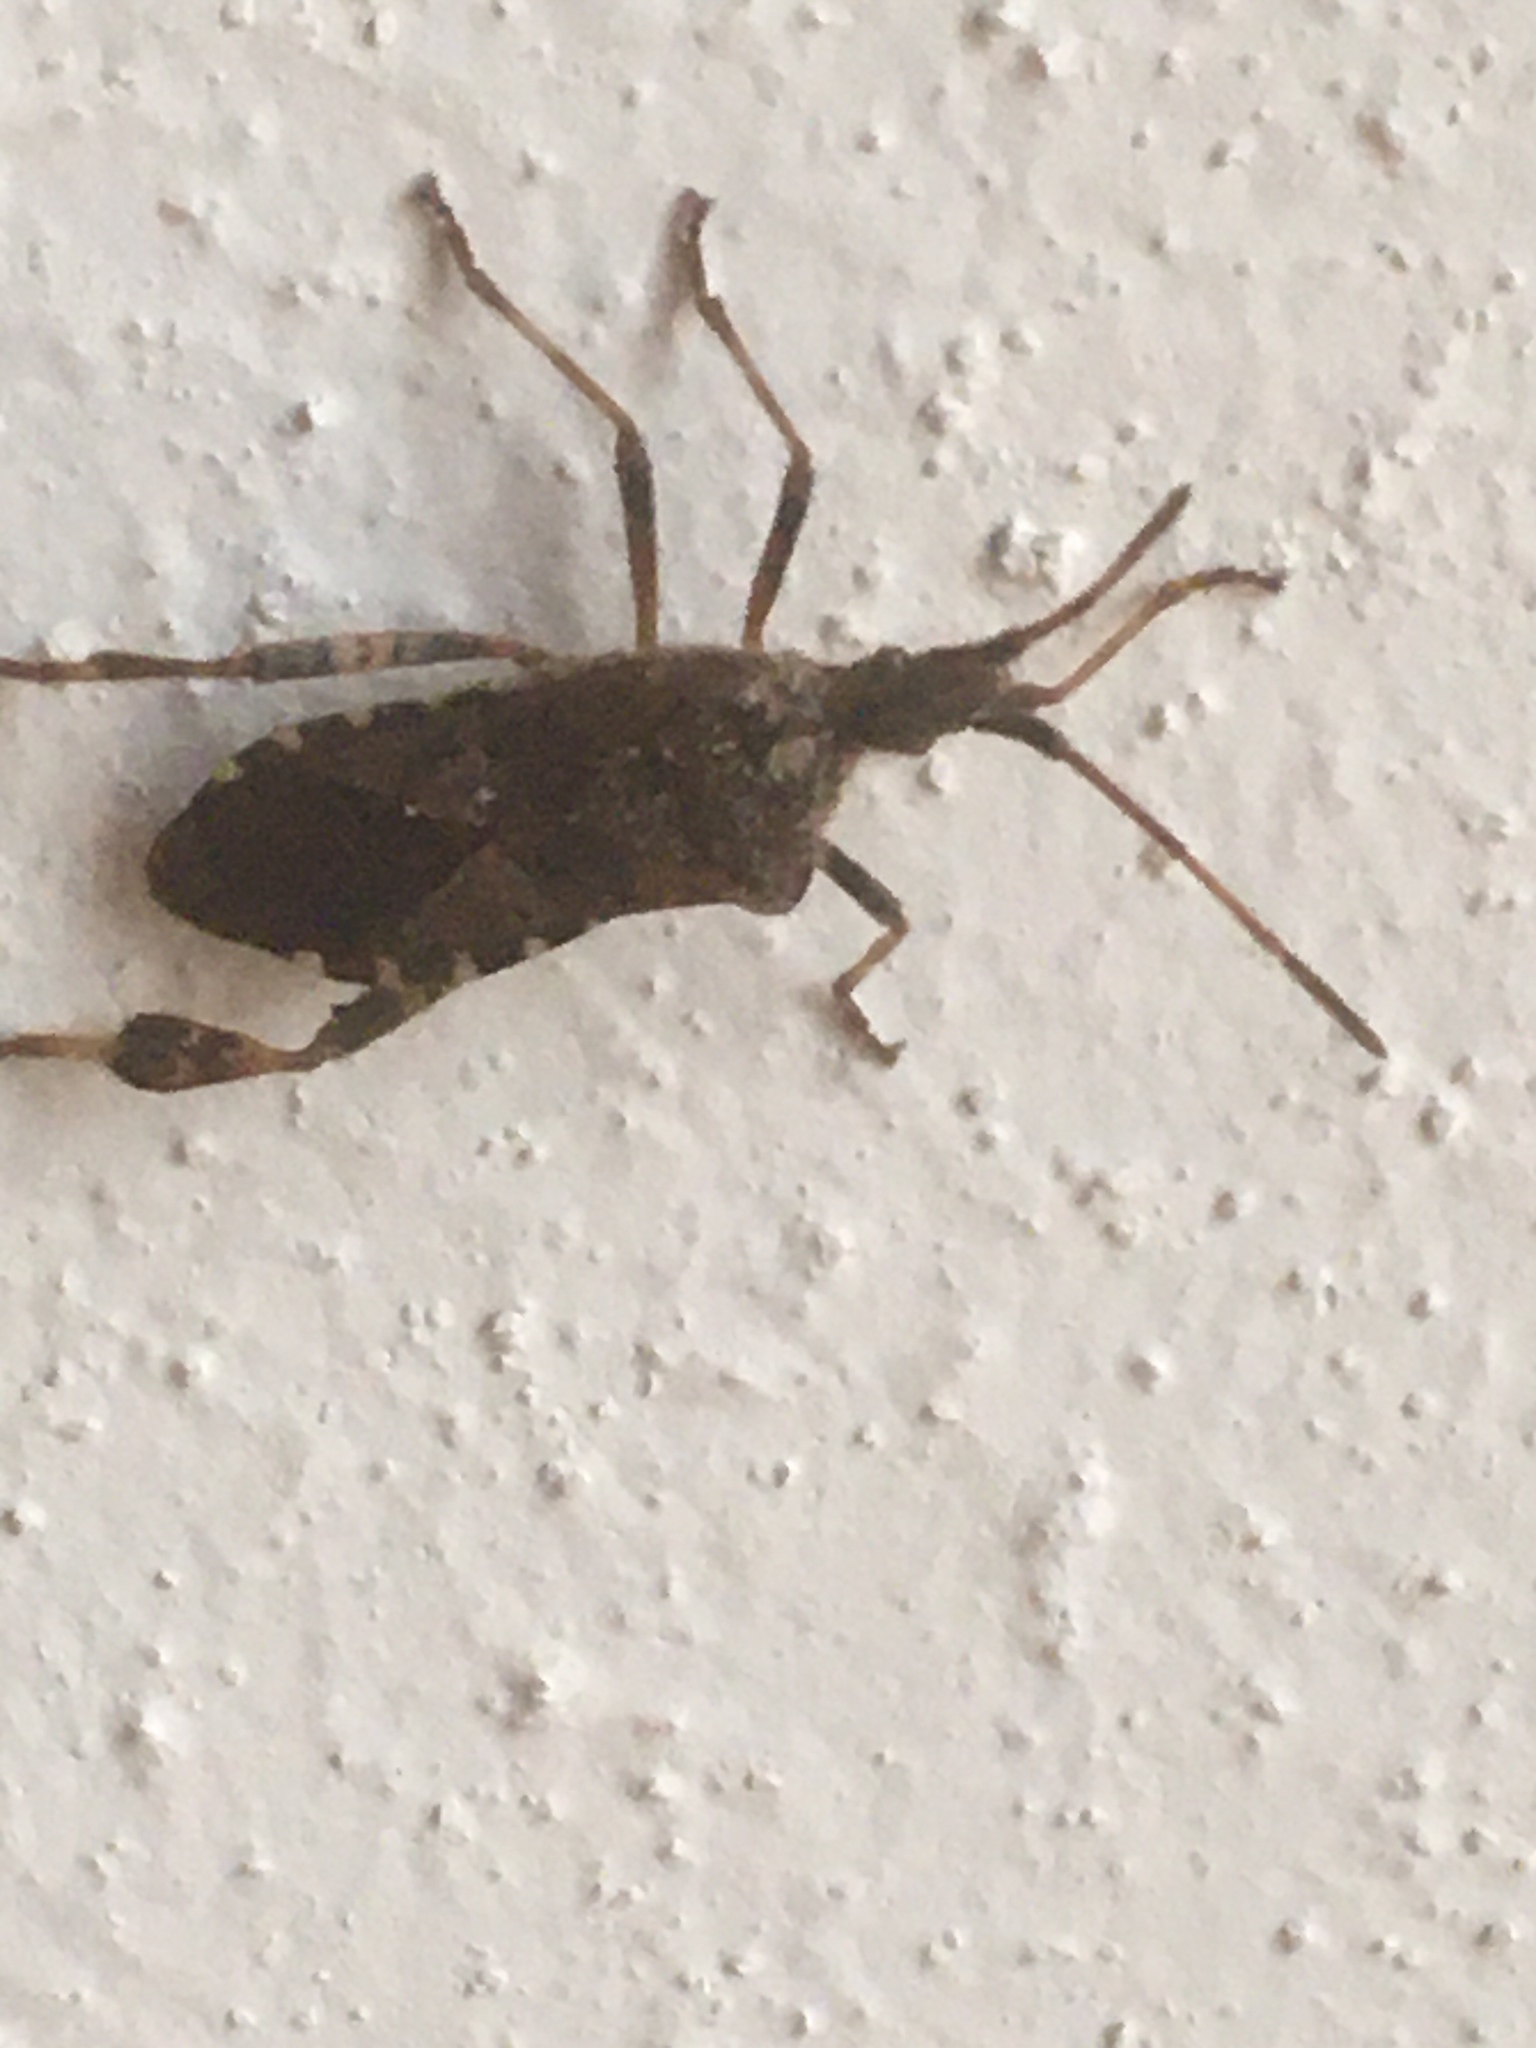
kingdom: Animalia
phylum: Arthropoda
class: Insecta
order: Hemiptera
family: Coreidae
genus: Leptoglossus
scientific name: Leptoglossus occidentalis
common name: Western conifer-seed bug
